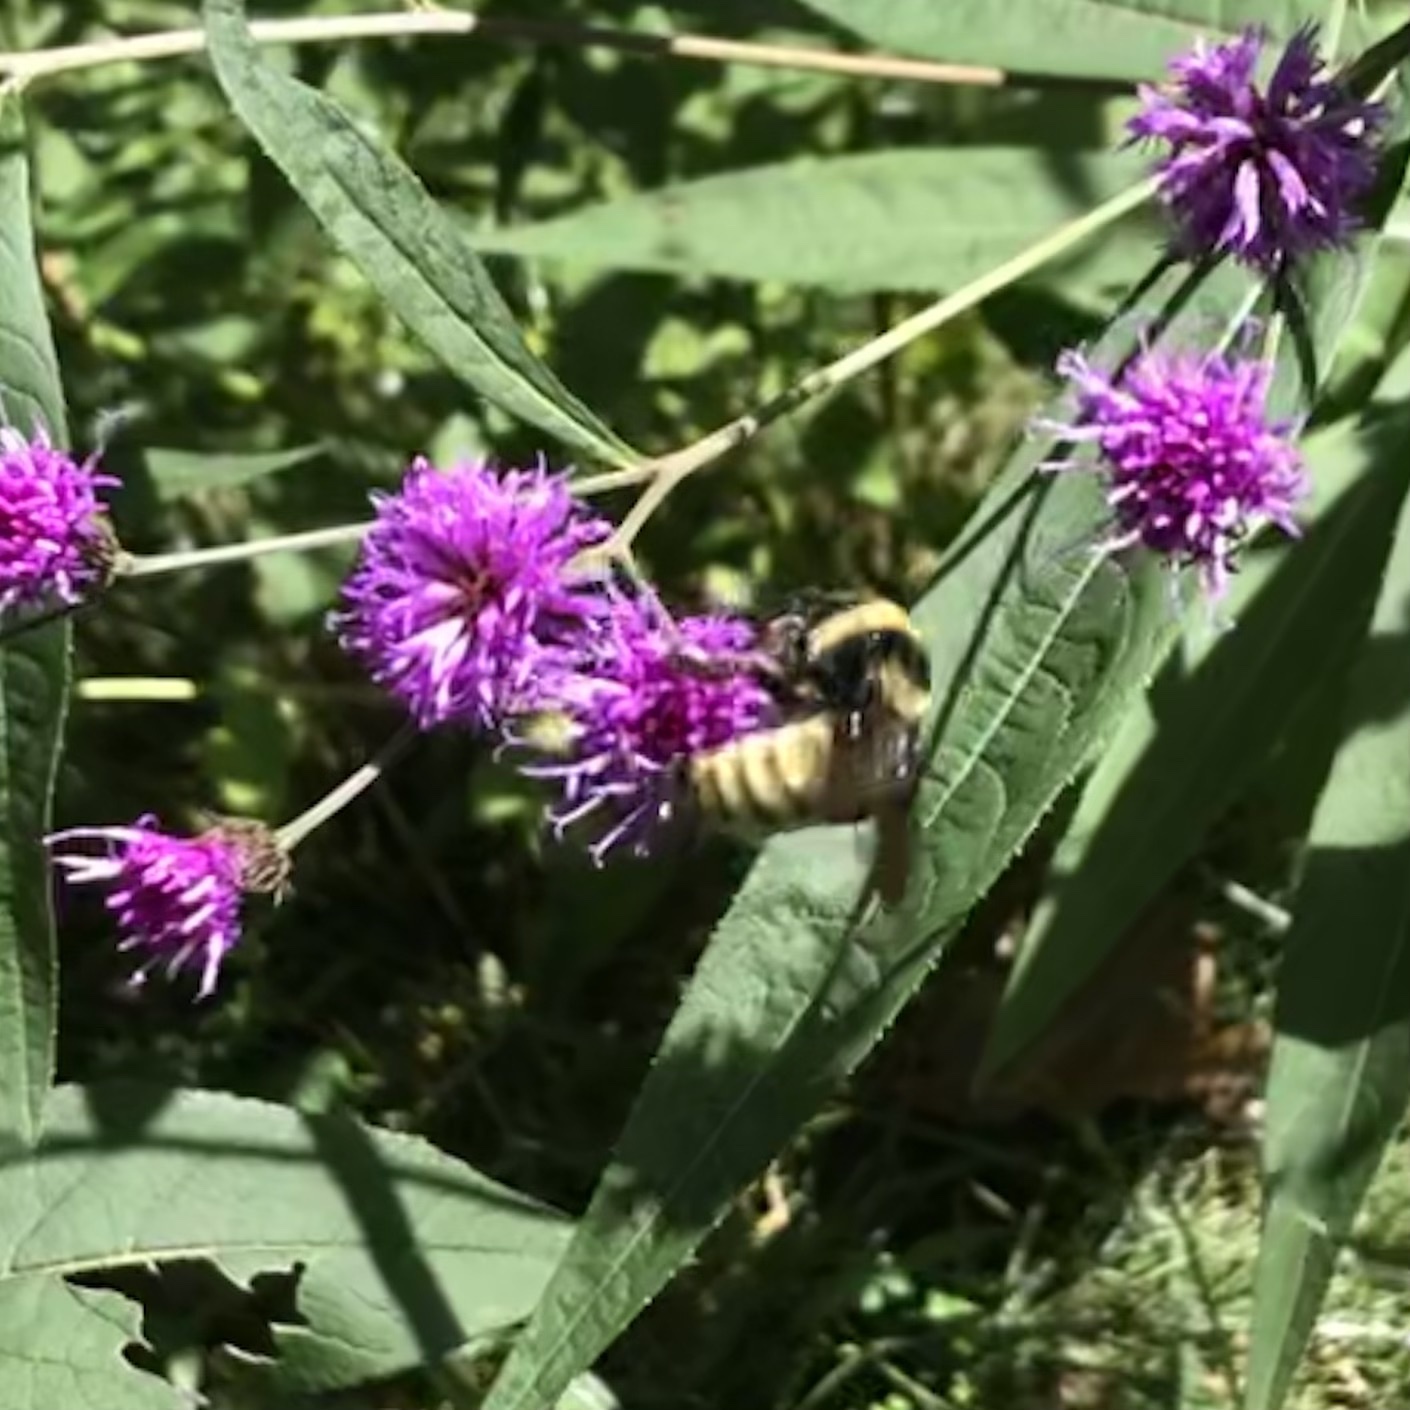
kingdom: Animalia
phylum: Arthropoda
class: Insecta
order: Hymenoptera
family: Apidae
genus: Bombus
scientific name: Bombus pensylvanicus
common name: Bumble bee
